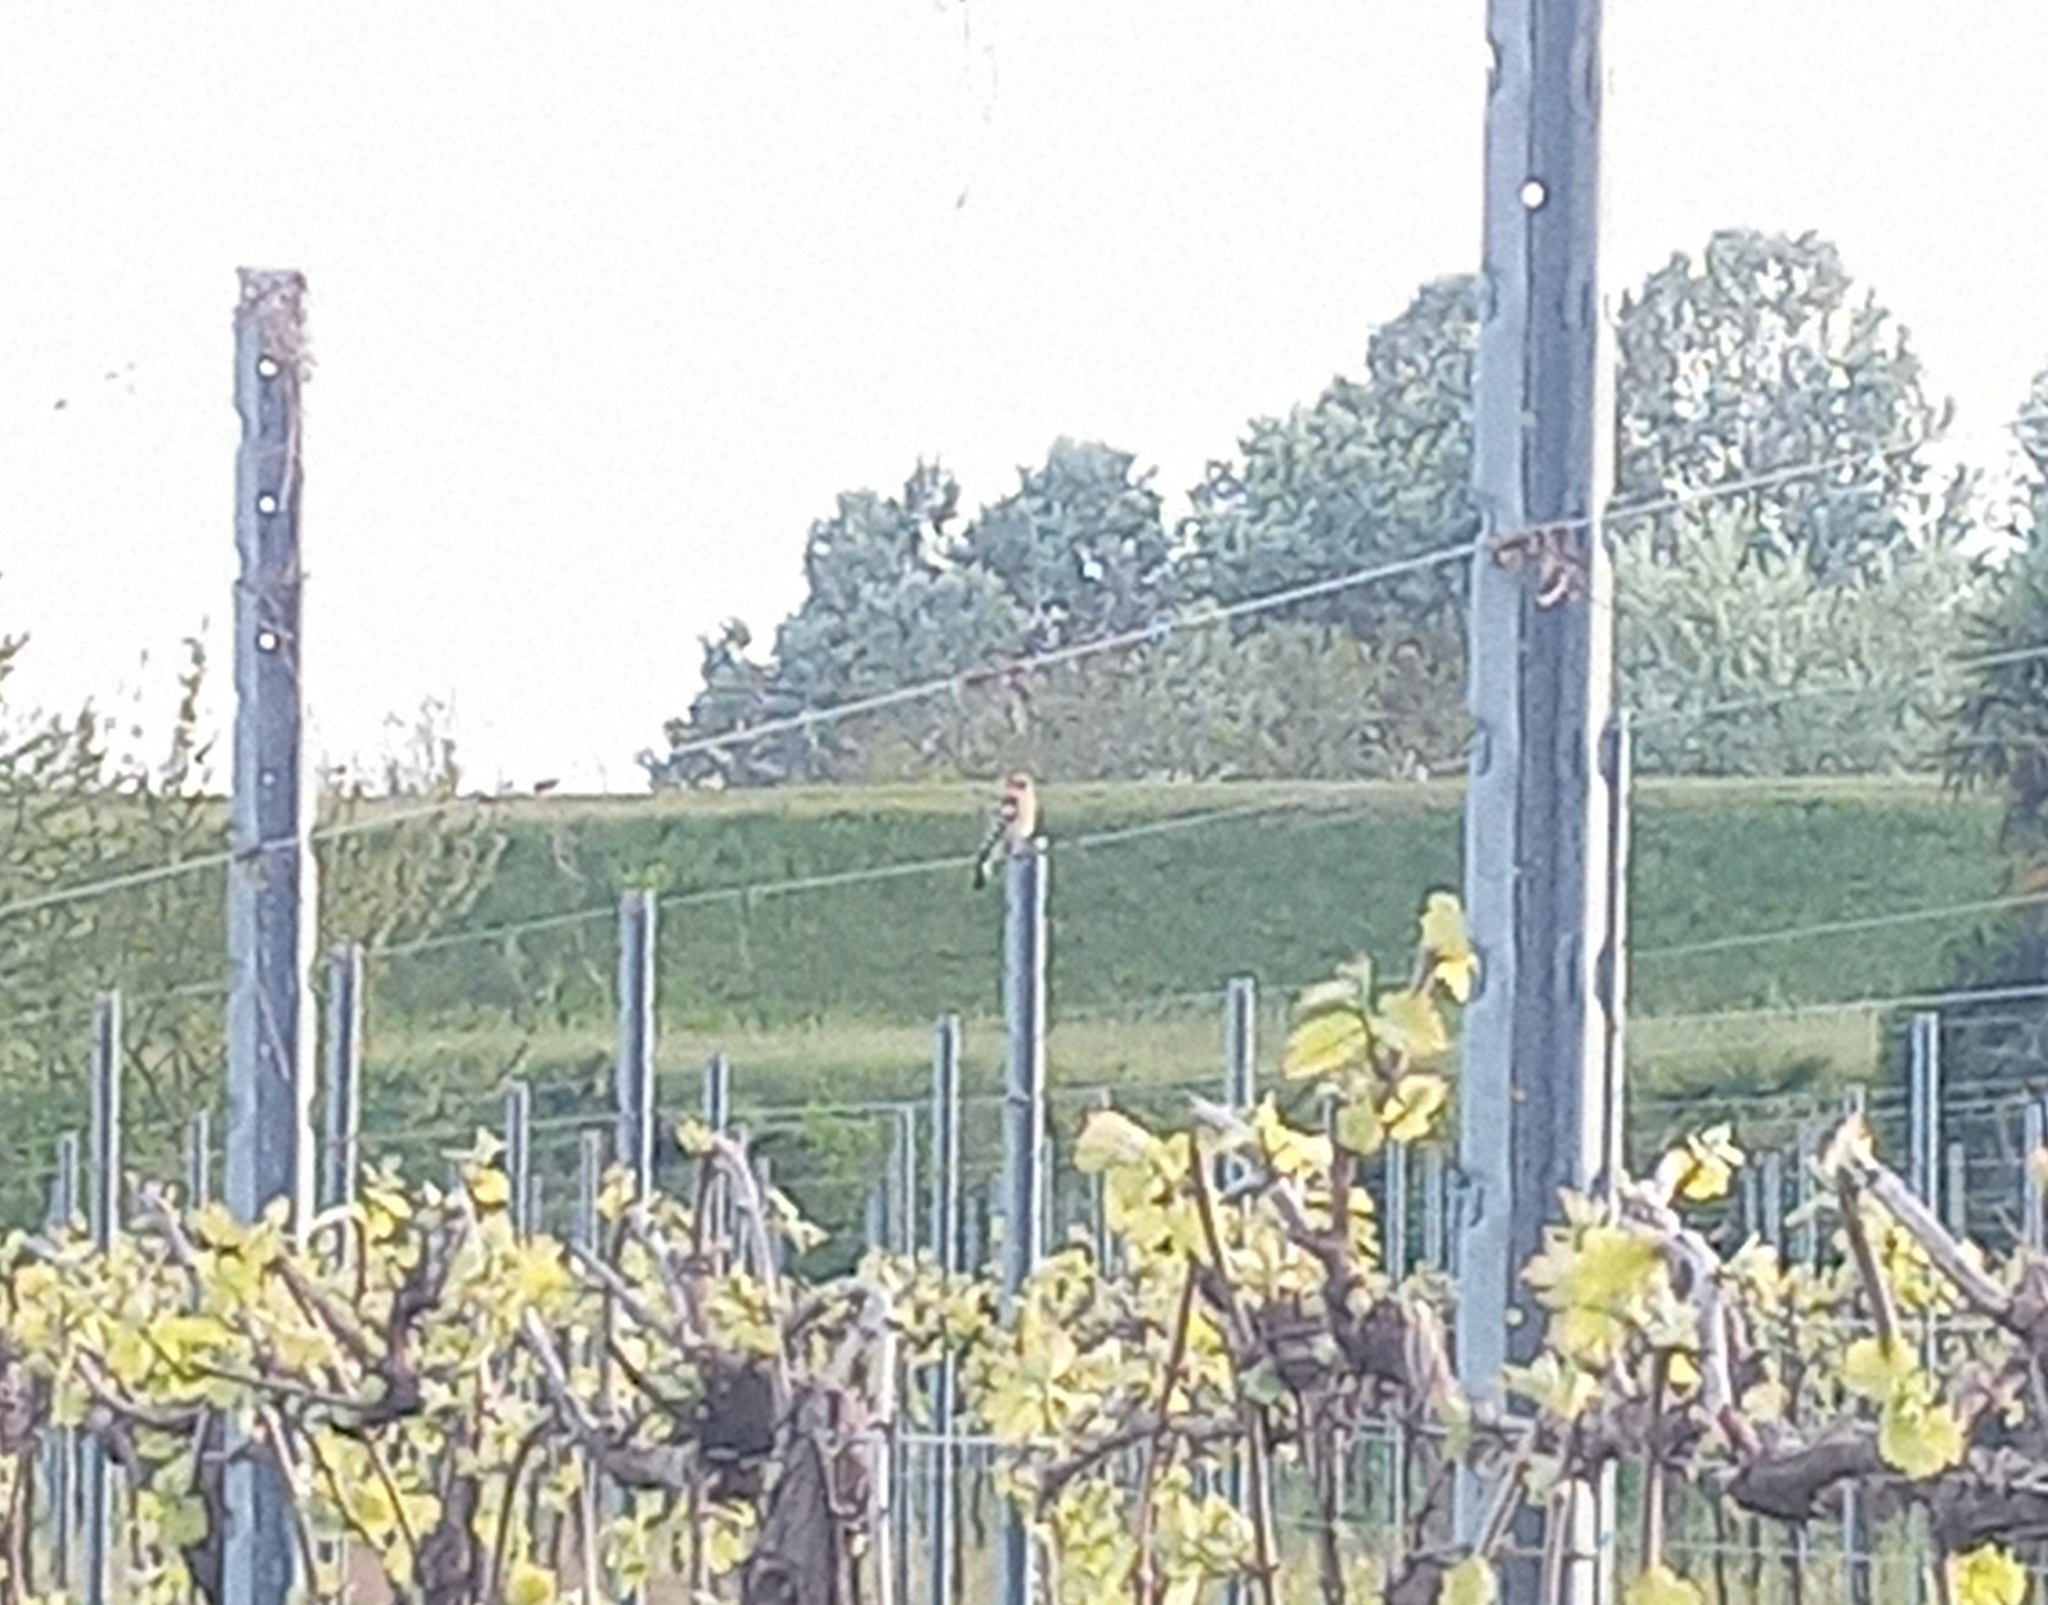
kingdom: Animalia
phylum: Chordata
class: Aves
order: Bucerotiformes
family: Upupidae
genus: Upupa
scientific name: Upupa epops
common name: Eurasian hoopoe
